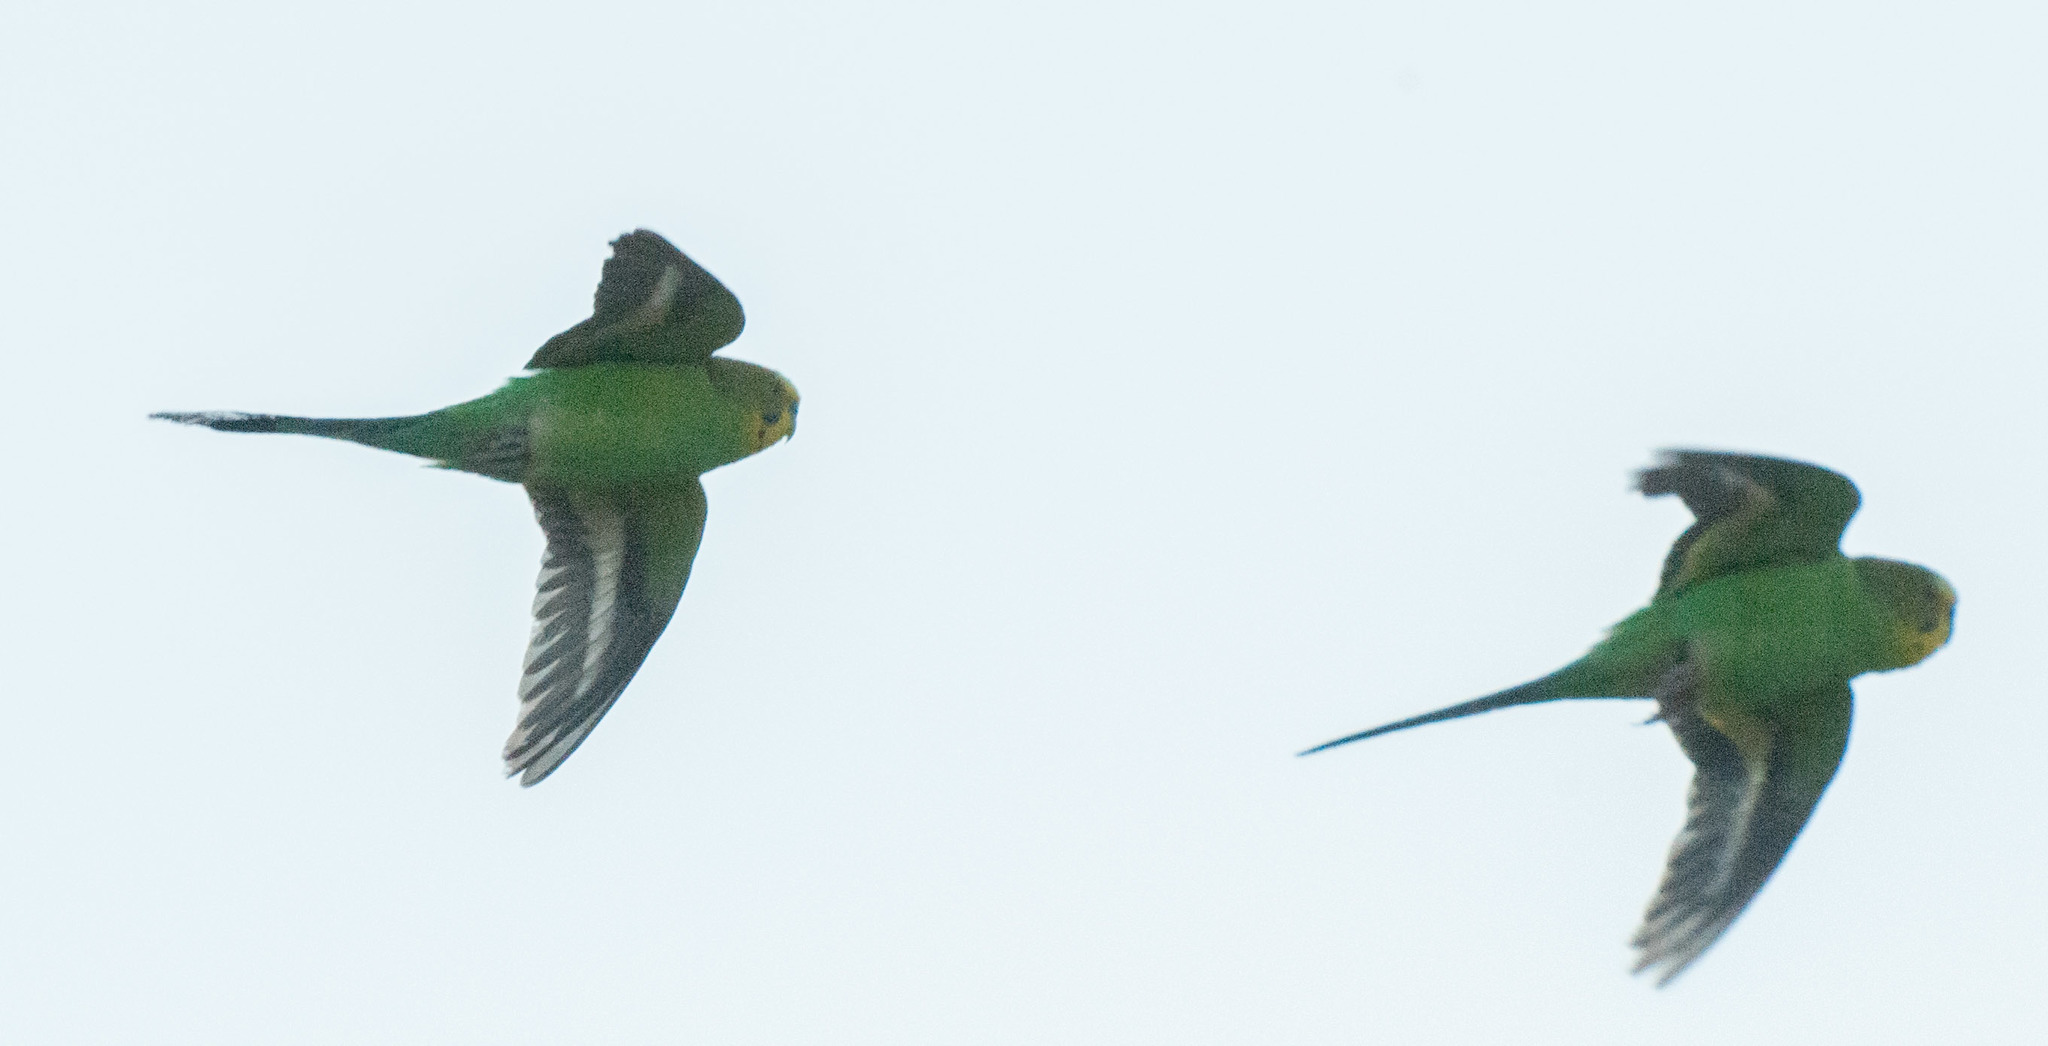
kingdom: Animalia
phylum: Chordata
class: Aves
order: Psittaciformes
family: Psittacidae
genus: Melopsittacus
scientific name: Melopsittacus undulatus
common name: Budgerigar
